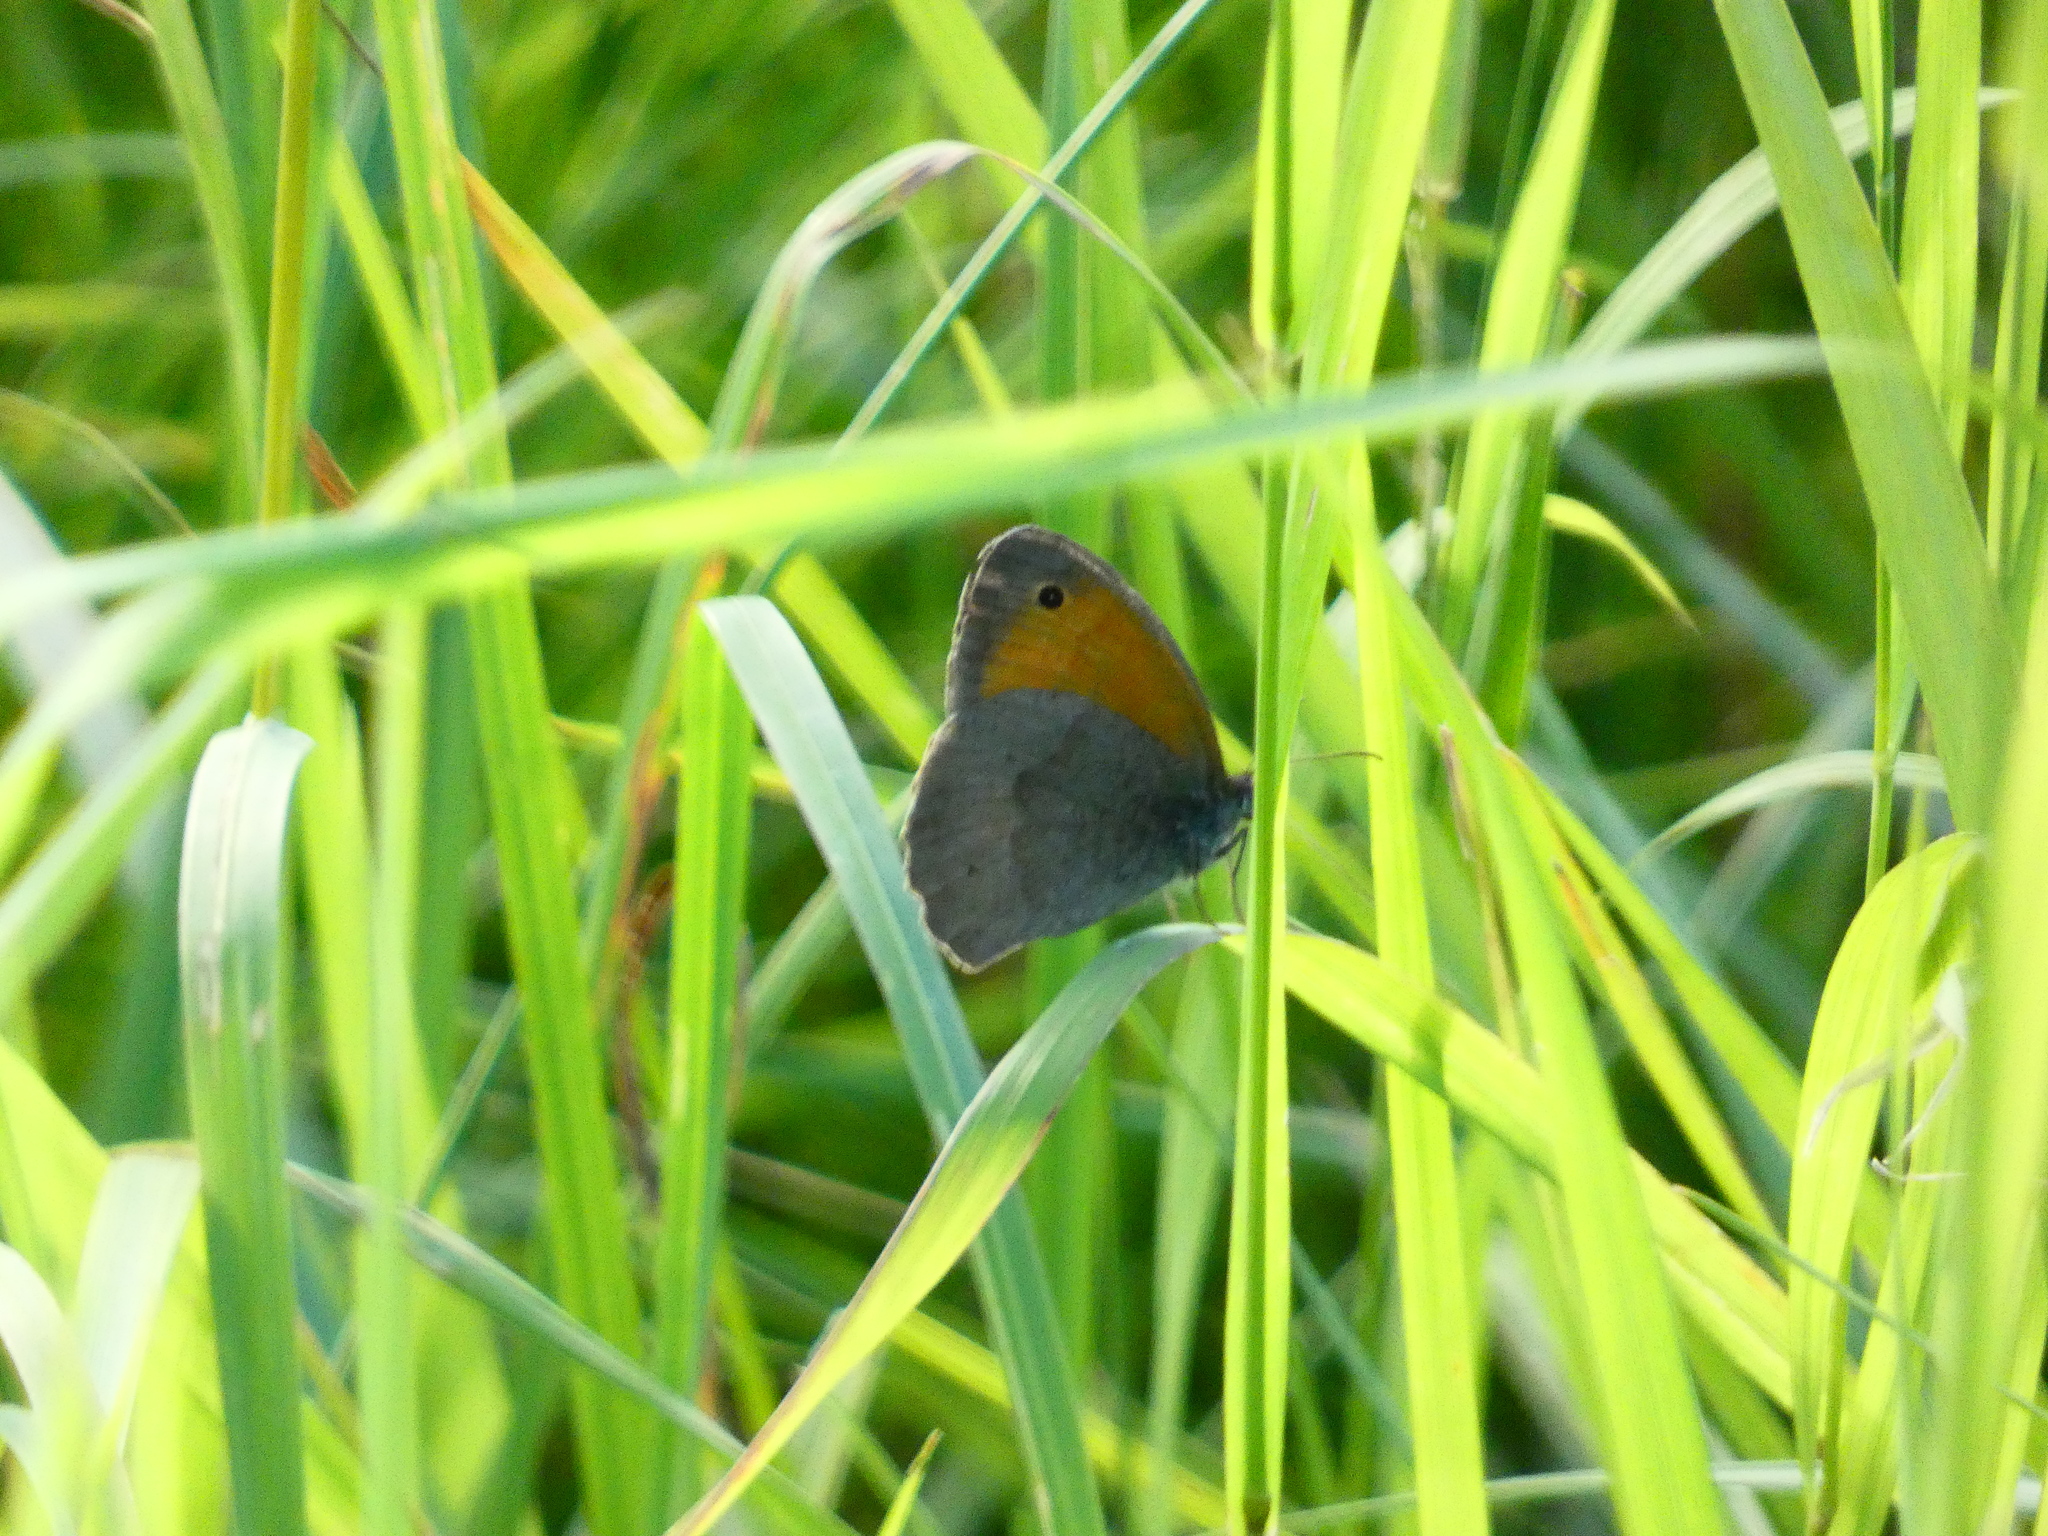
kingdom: Animalia
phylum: Arthropoda
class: Insecta
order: Lepidoptera
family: Nymphalidae
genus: Maniola
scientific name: Maniola jurtina
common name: Meadow brown
